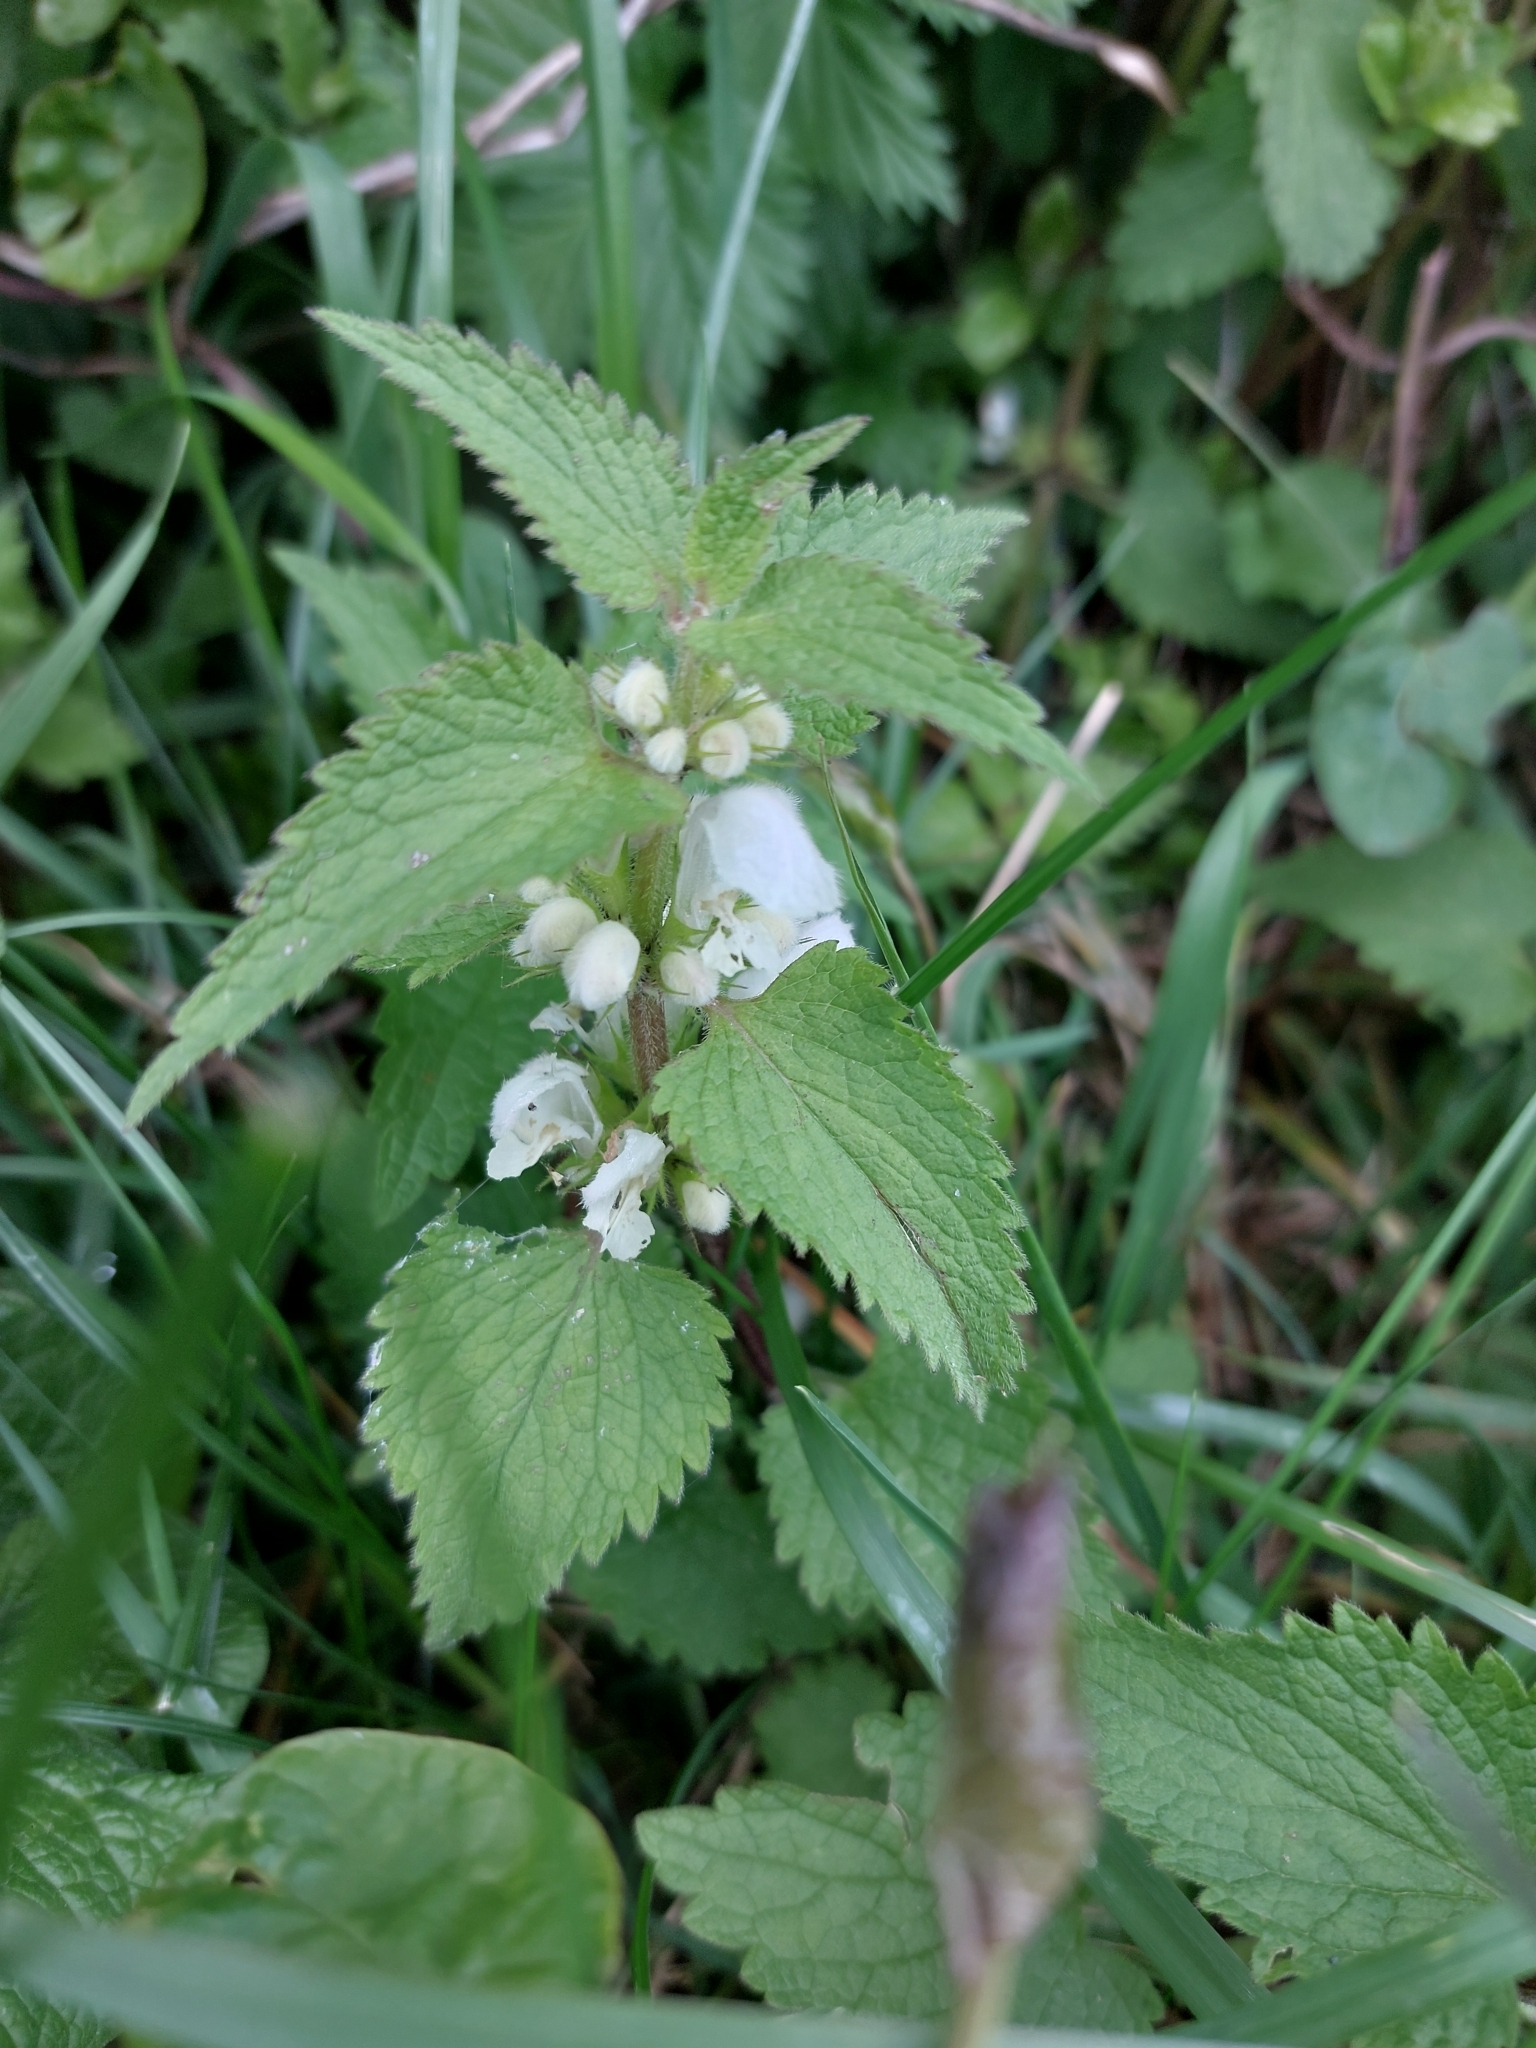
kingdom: Plantae
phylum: Tracheophyta
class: Magnoliopsida
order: Lamiales
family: Lamiaceae
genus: Lamium
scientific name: Lamium album
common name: White dead-nettle
